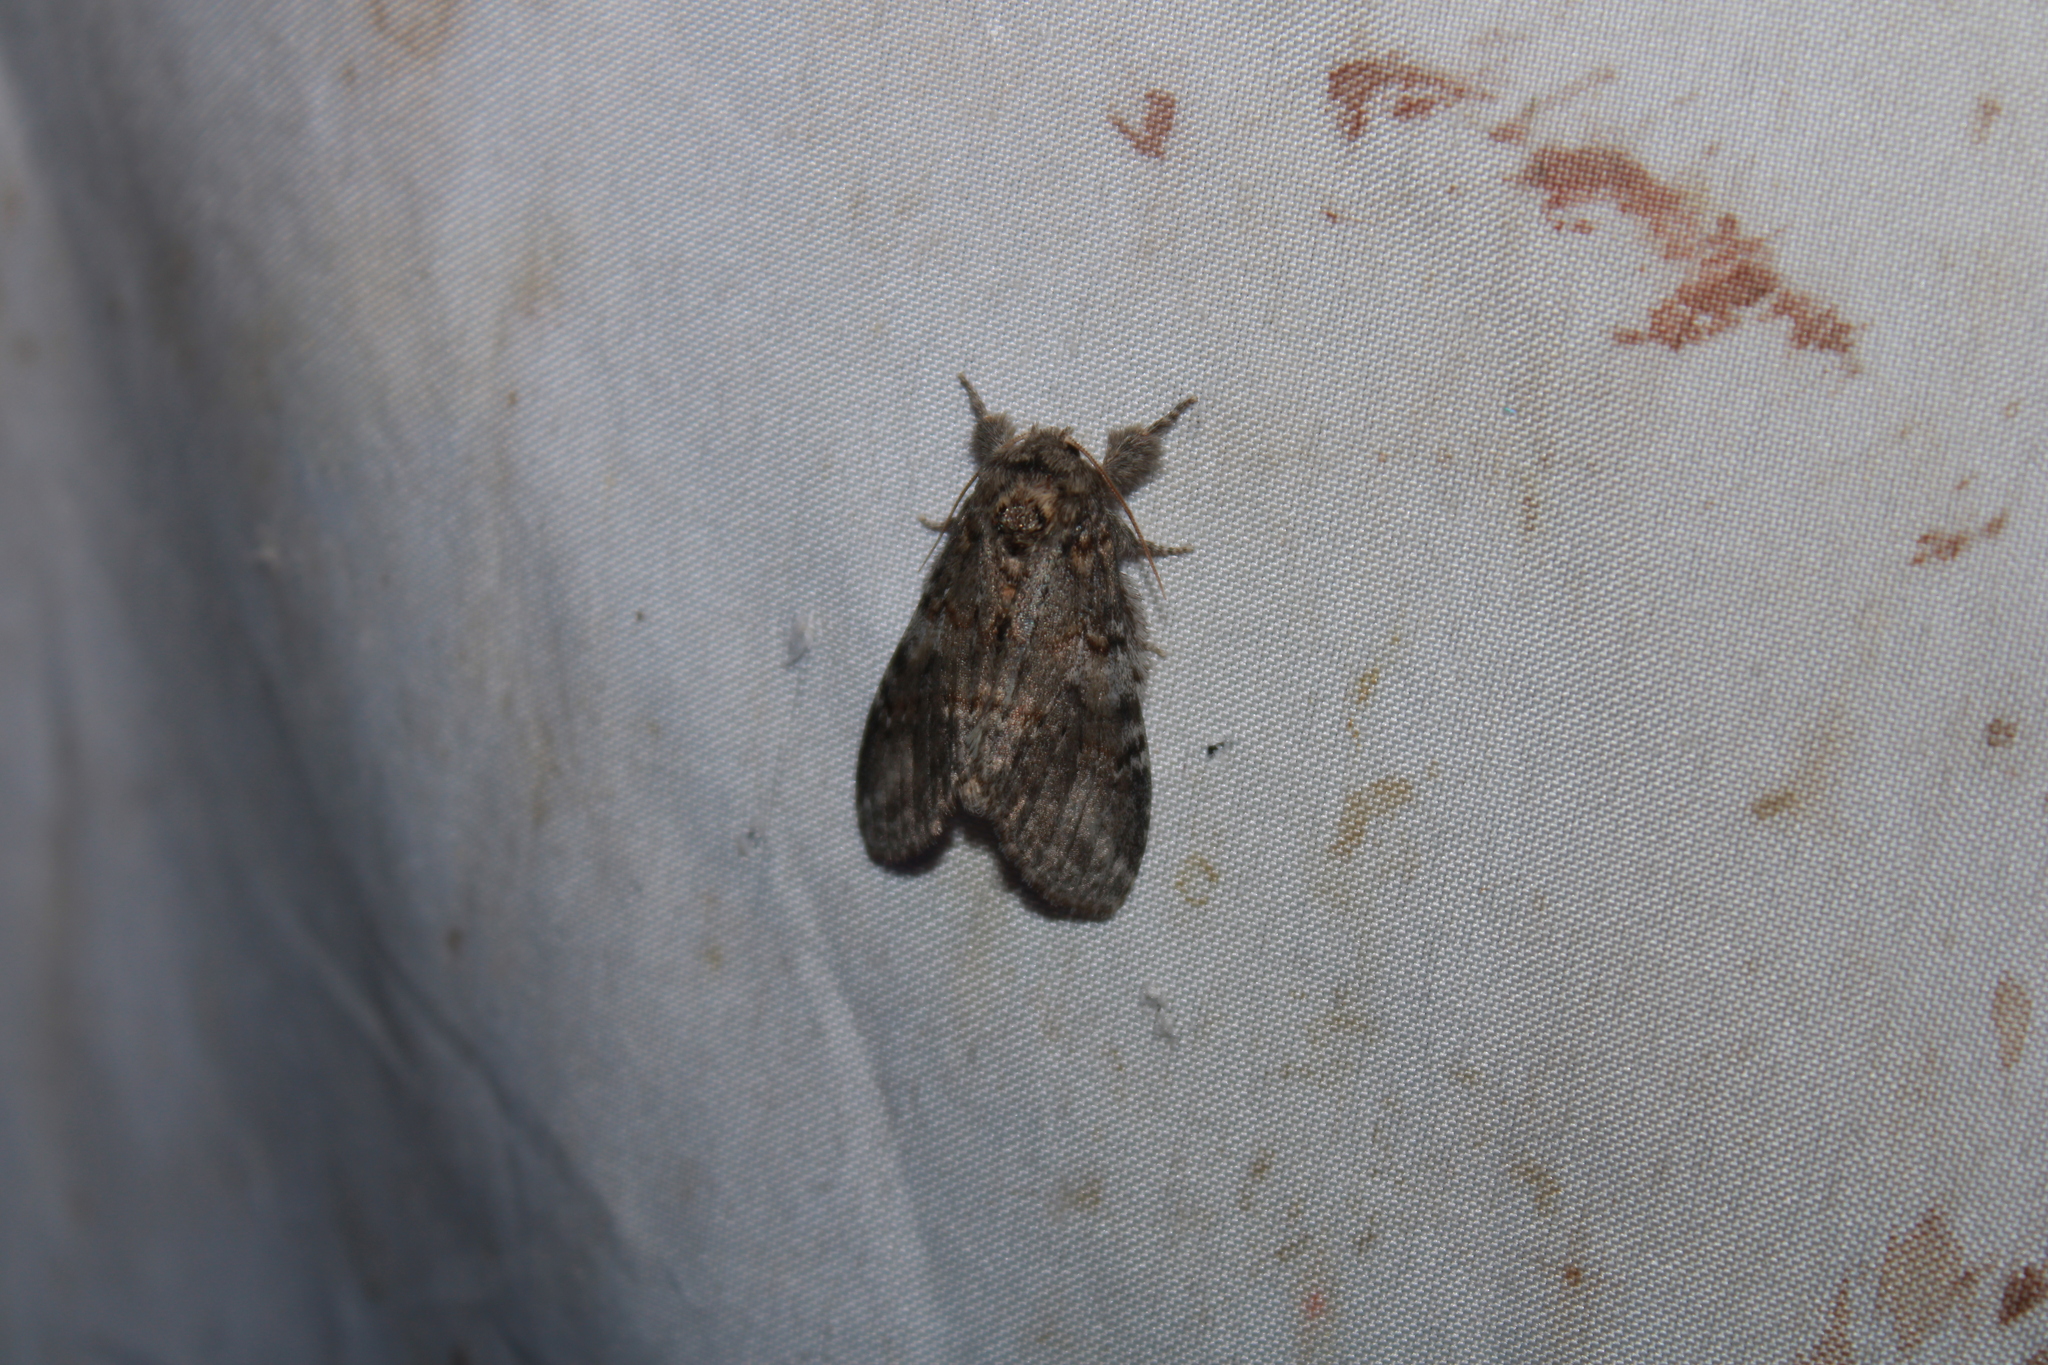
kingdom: Animalia
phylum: Arthropoda
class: Insecta
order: Lepidoptera
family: Notodontidae
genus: Peridea
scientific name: Peridea angulosa
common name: Angulose prominent
